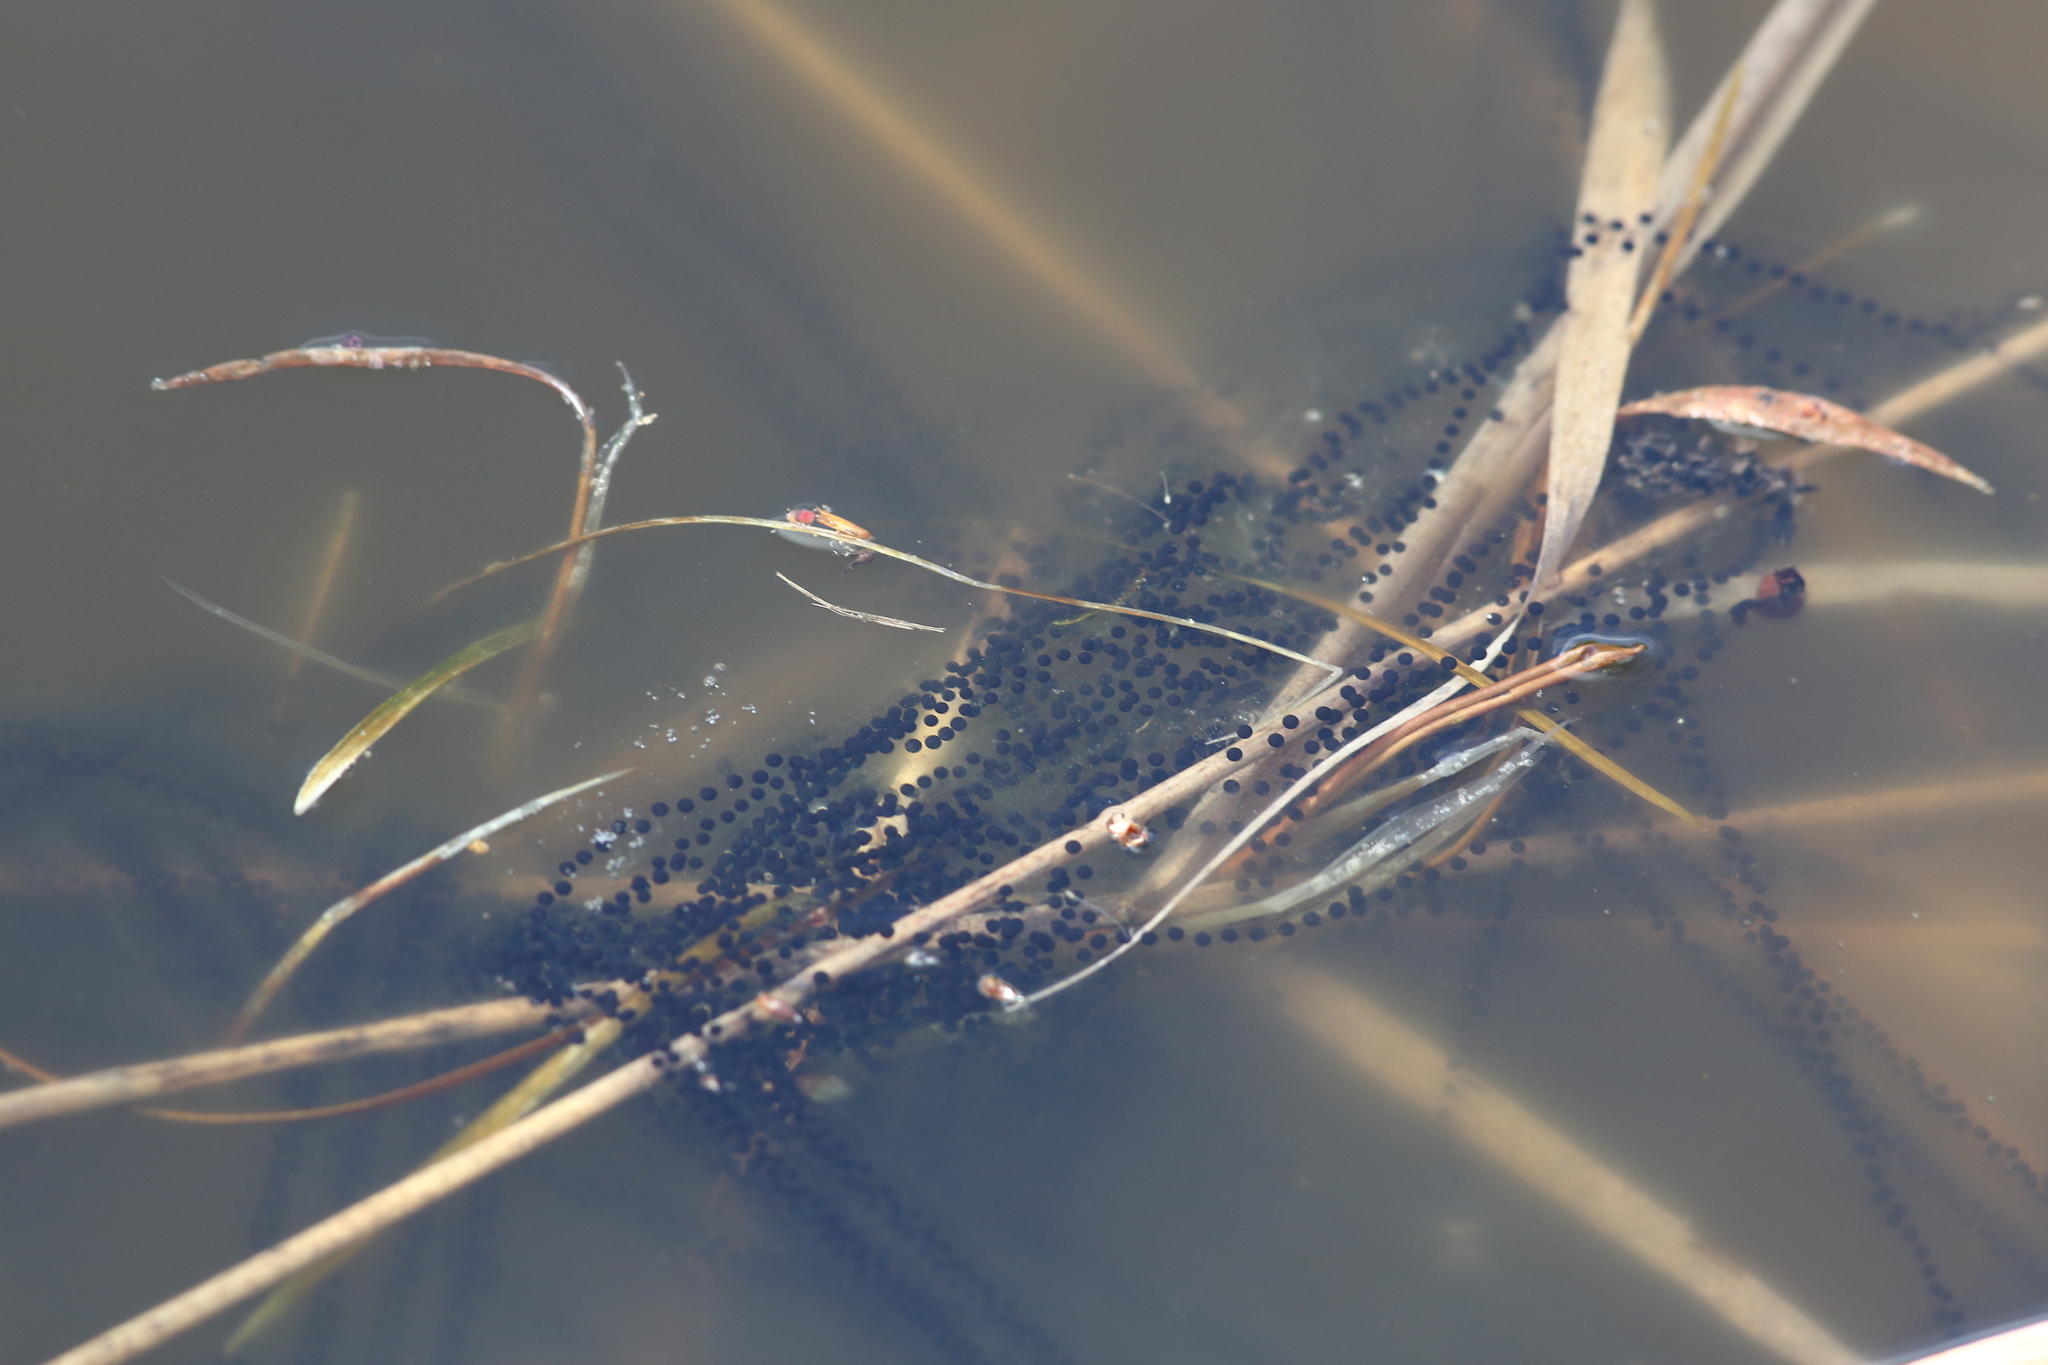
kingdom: Animalia
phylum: Chordata
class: Amphibia
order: Anura
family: Bufonidae
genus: Bufo
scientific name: Bufo bufo
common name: Common toad
